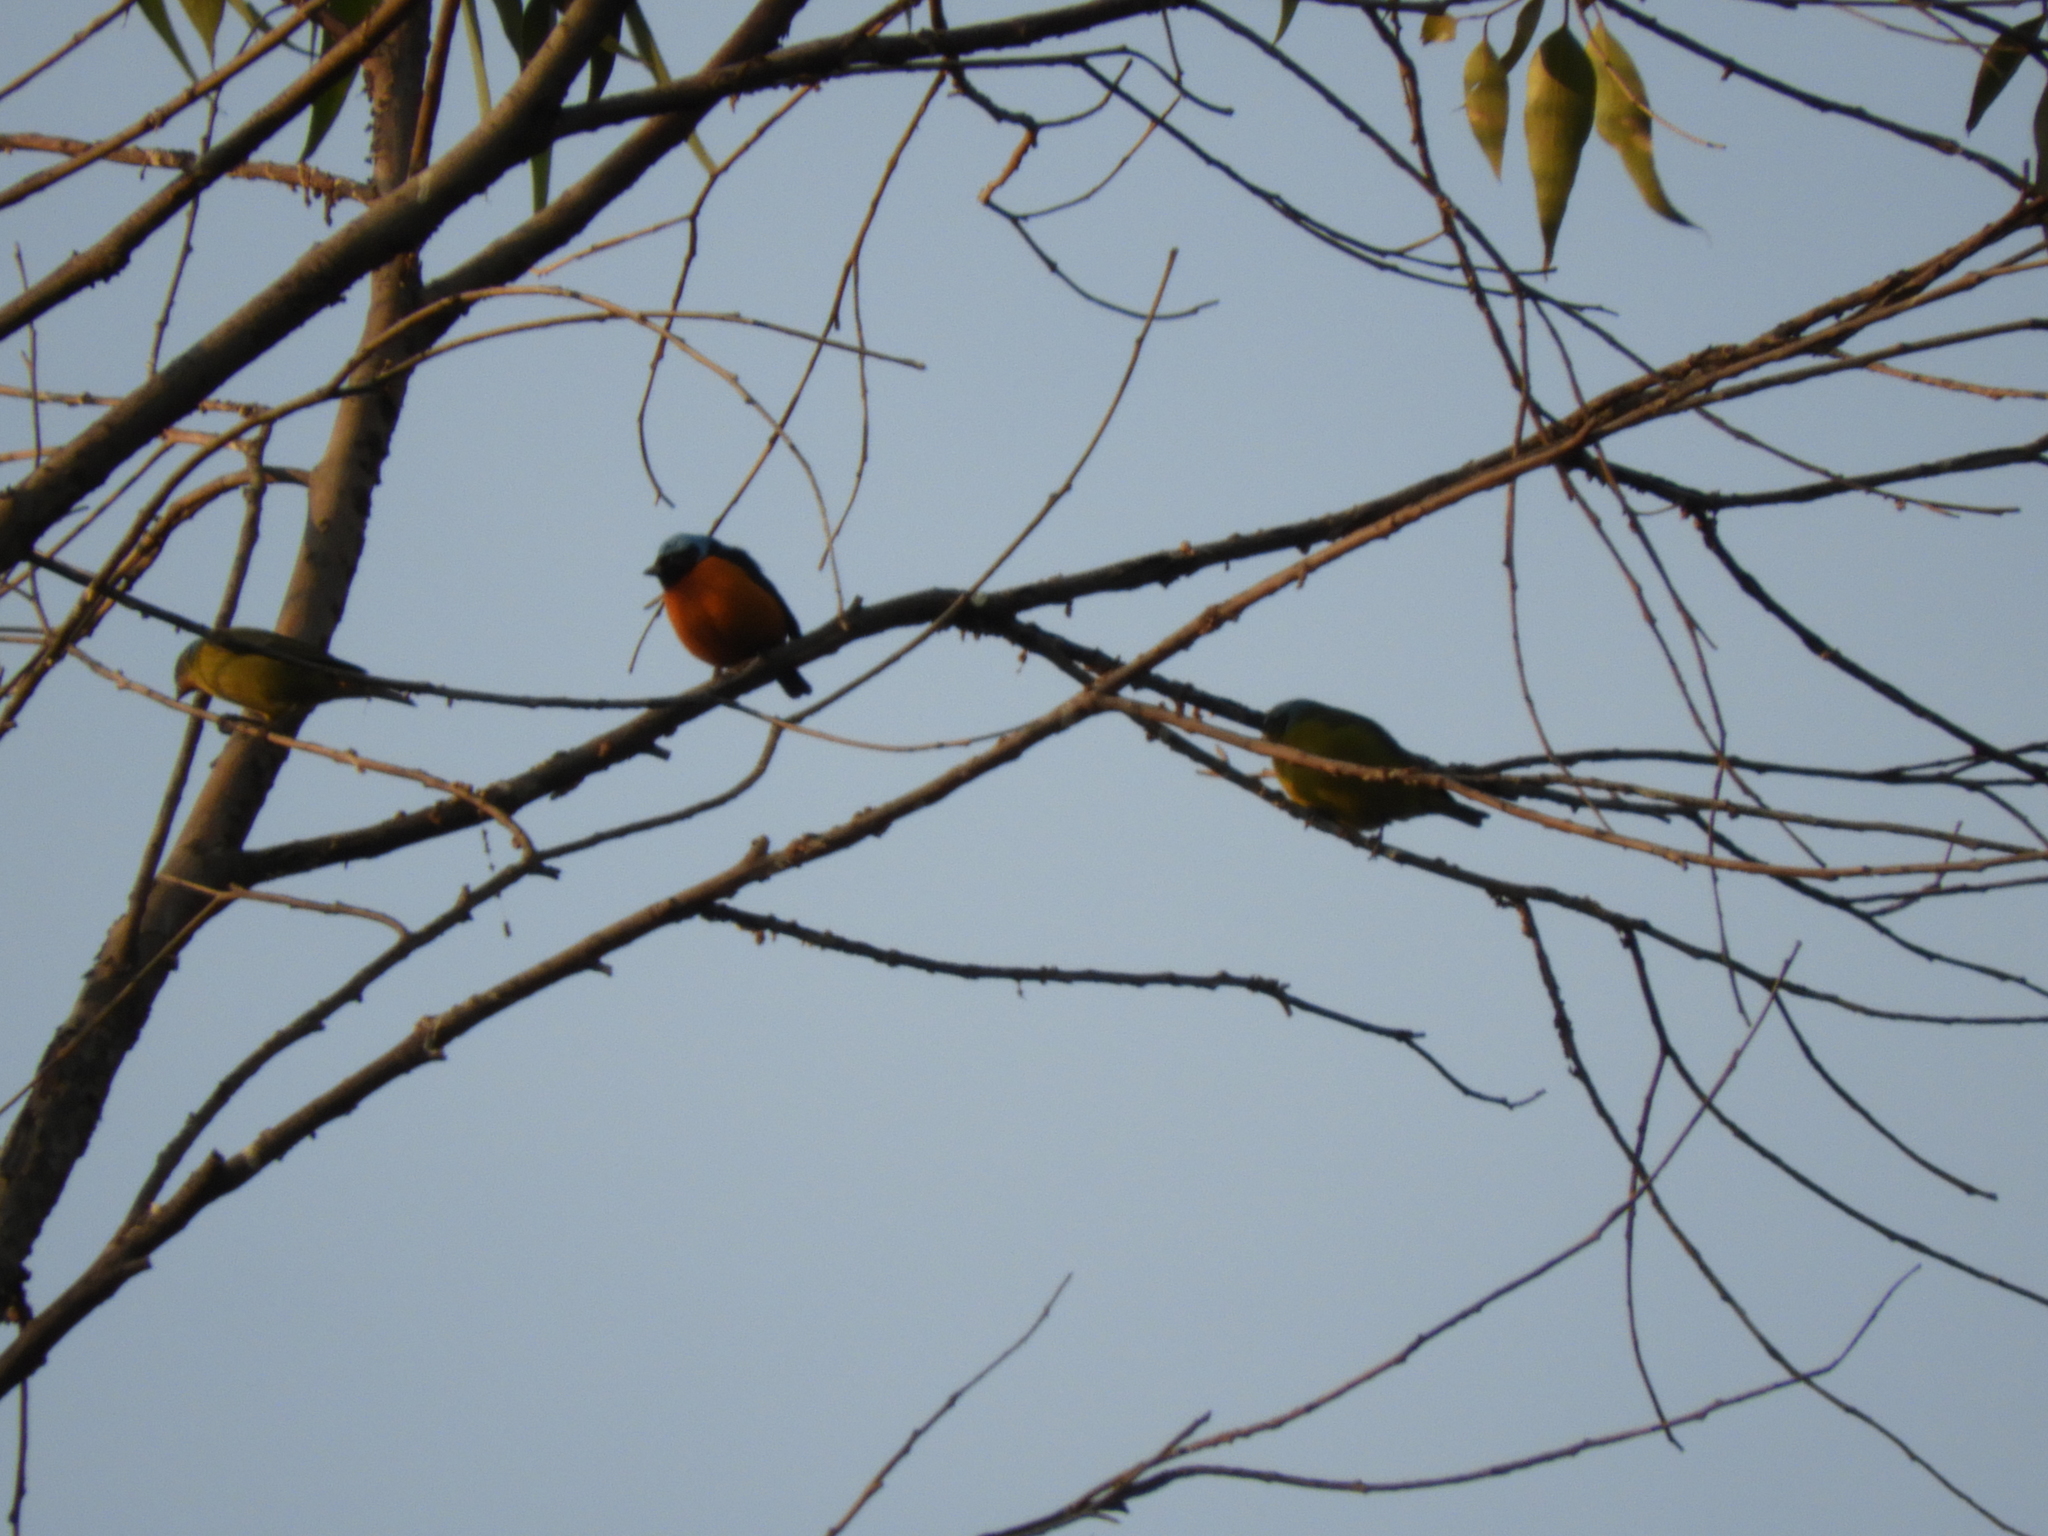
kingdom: Animalia
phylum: Chordata
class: Aves
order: Passeriformes
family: Fringillidae
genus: Euphonia
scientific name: Euphonia elegantissima
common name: Elegant euphonia
